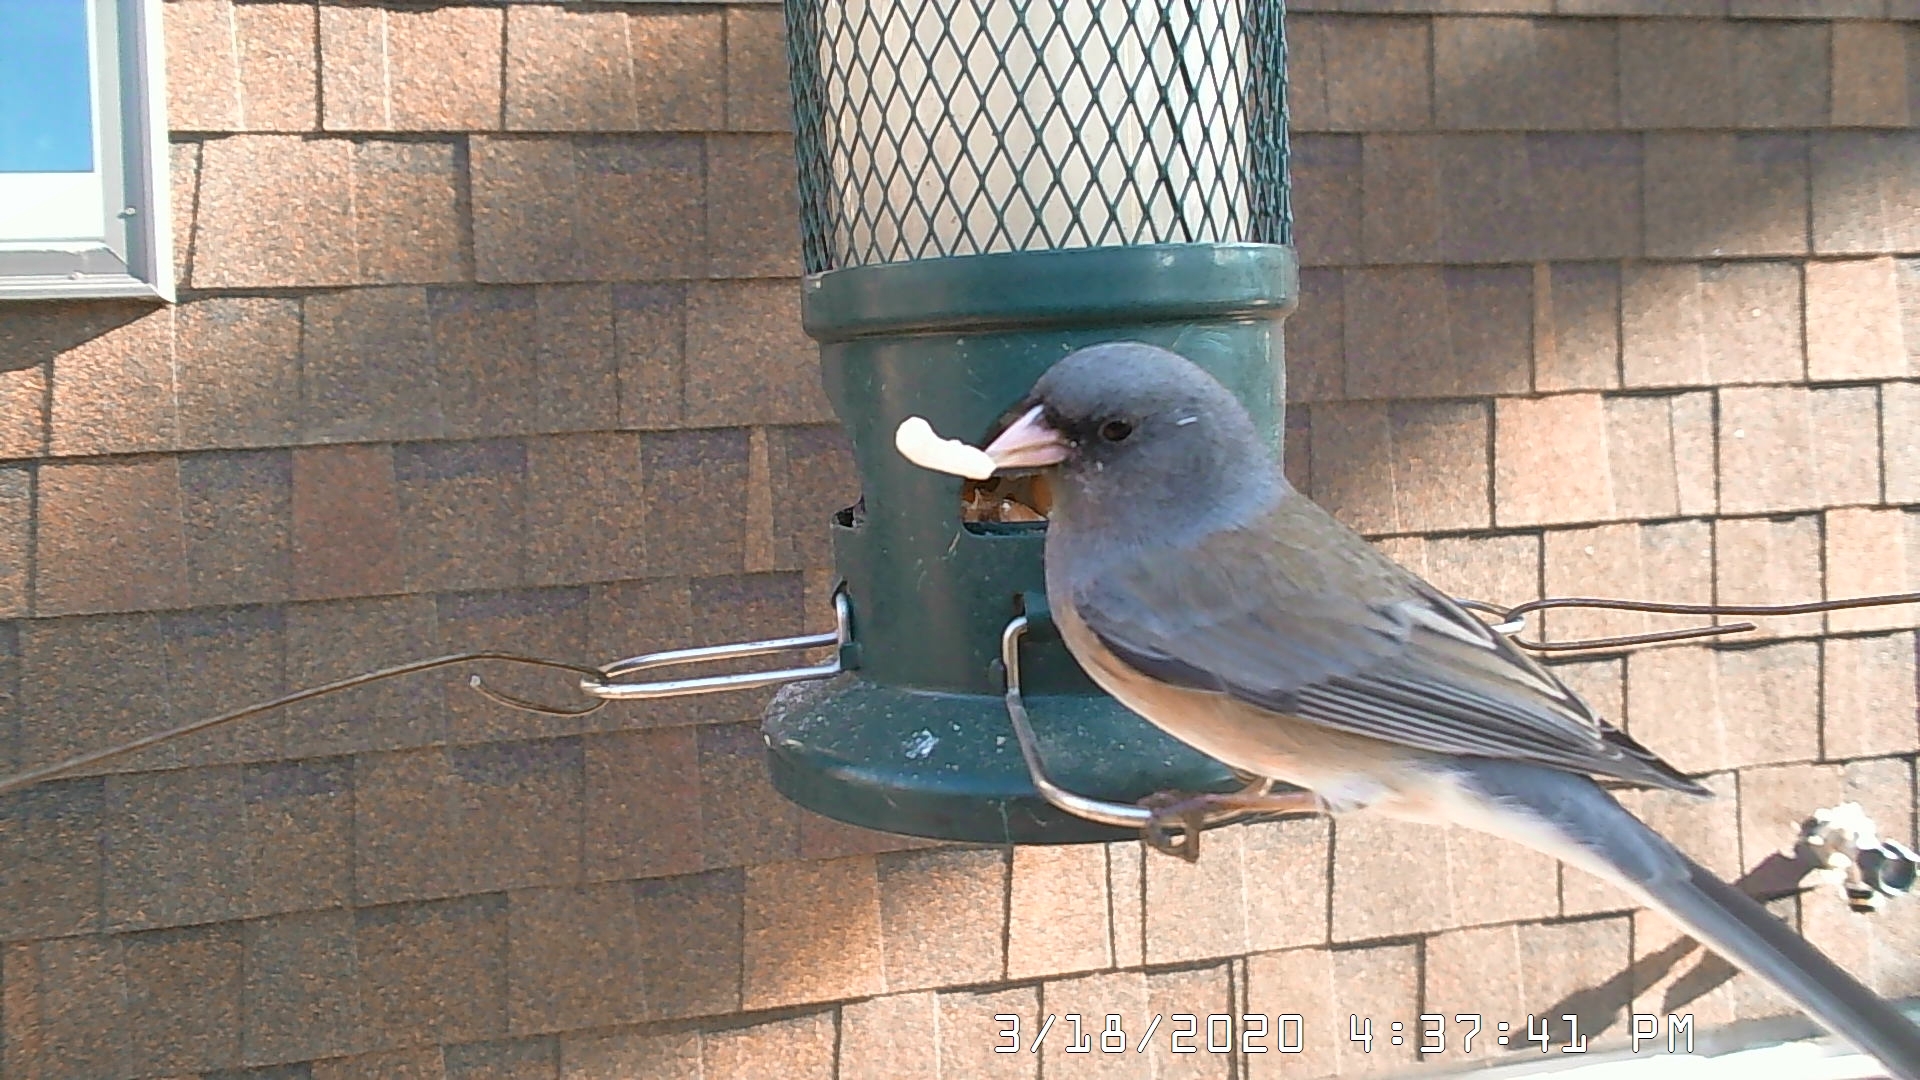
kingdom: Animalia
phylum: Chordata
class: Aves
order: Passeriformes
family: Passerellidae
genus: Junco
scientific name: Junco hyemalis
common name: Dark-eyed junco
